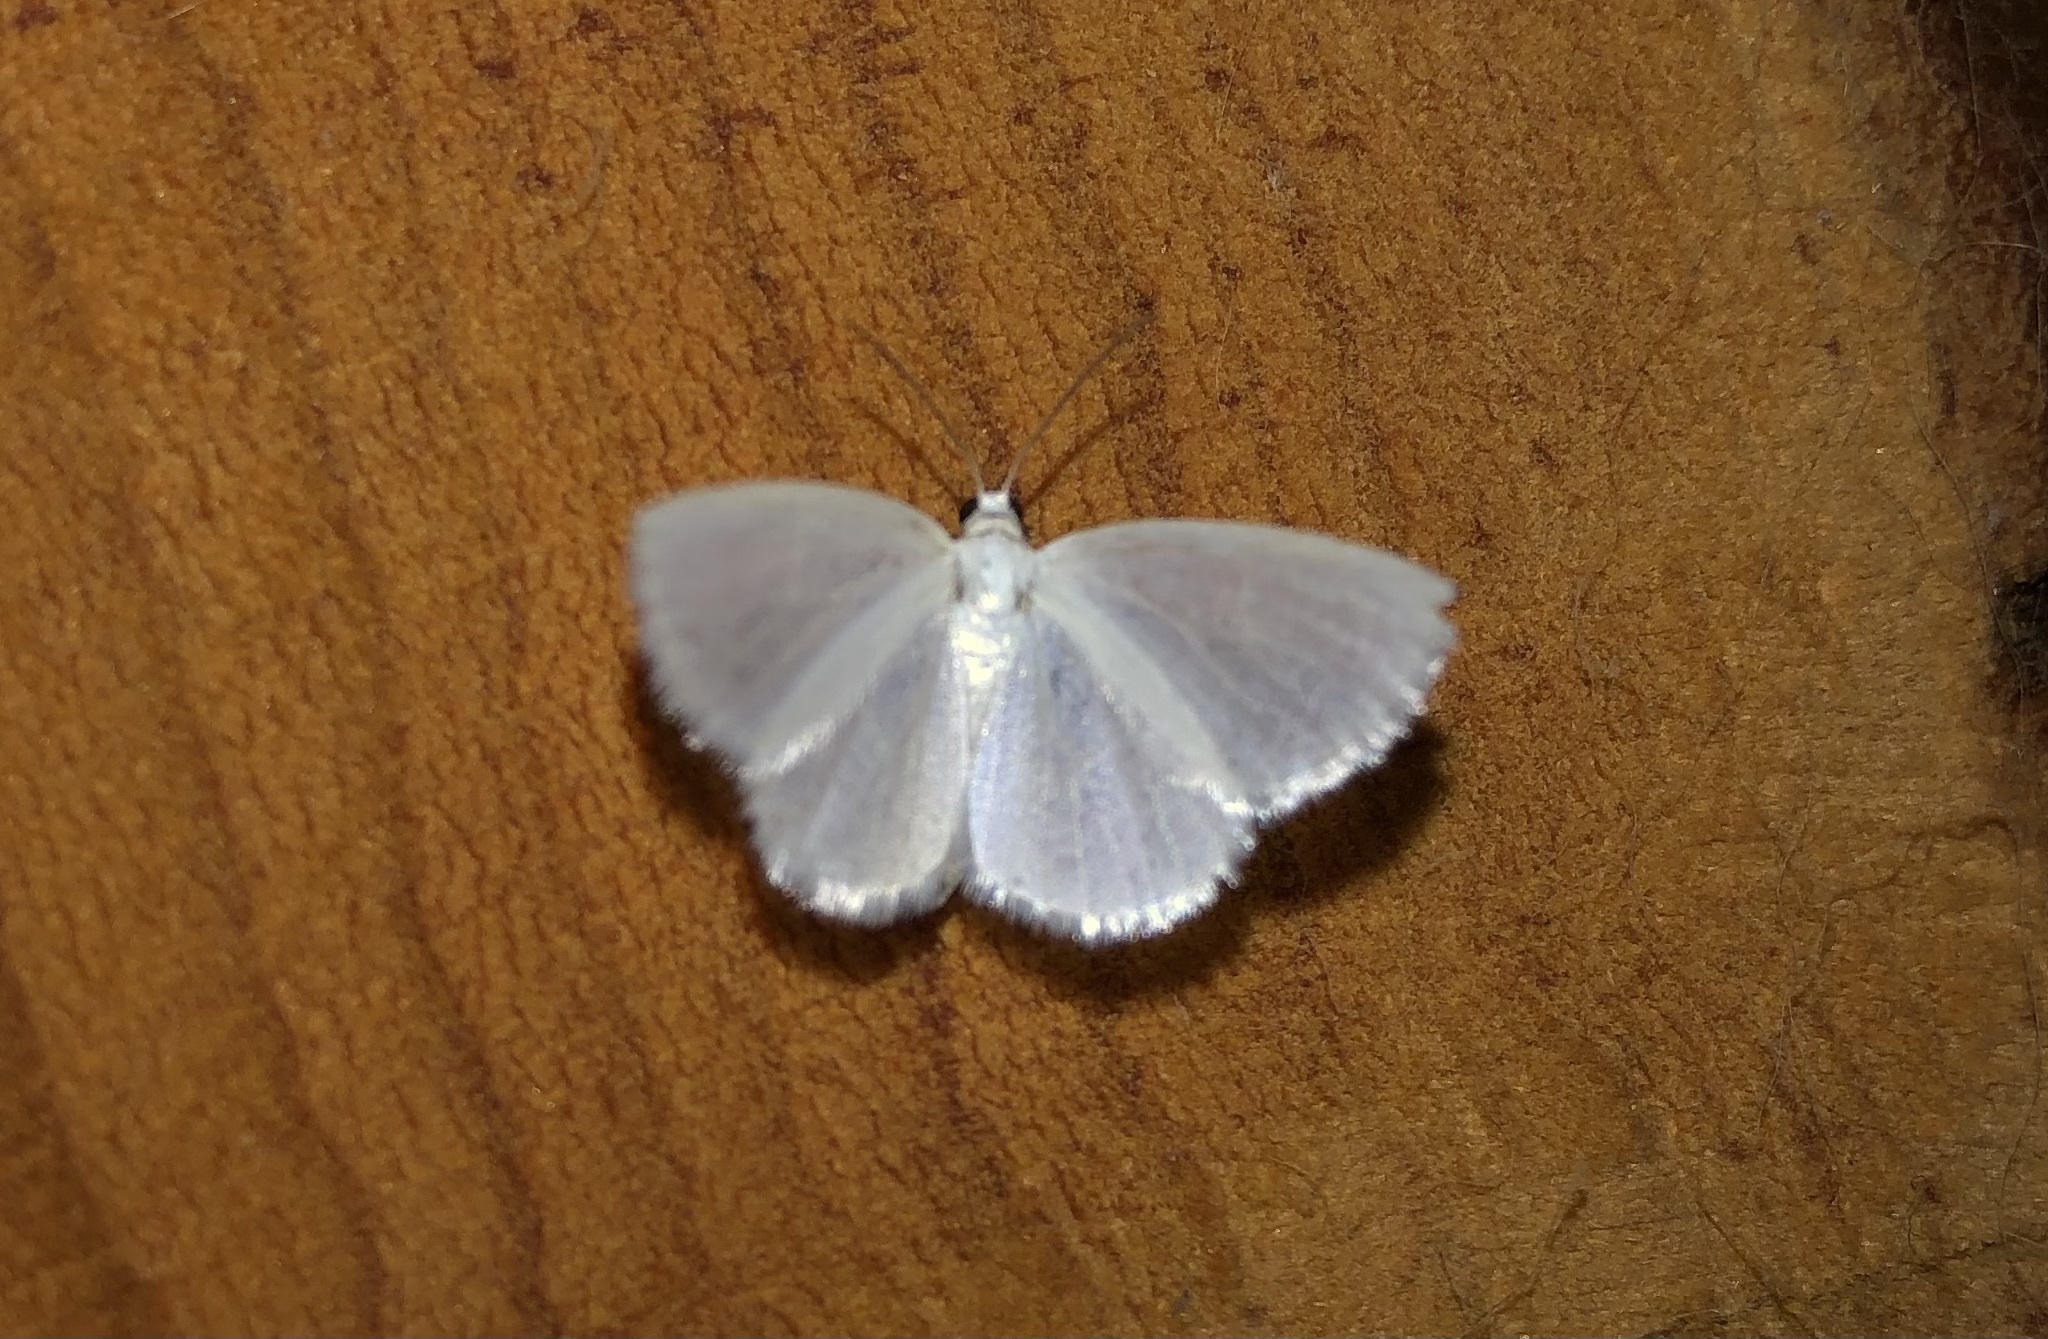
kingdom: Animalia
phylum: Arthropoda
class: Insecta
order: Lepidoptera
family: Geometridae
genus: Lomographa
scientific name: Lomographa vestaliata
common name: White spring moth
